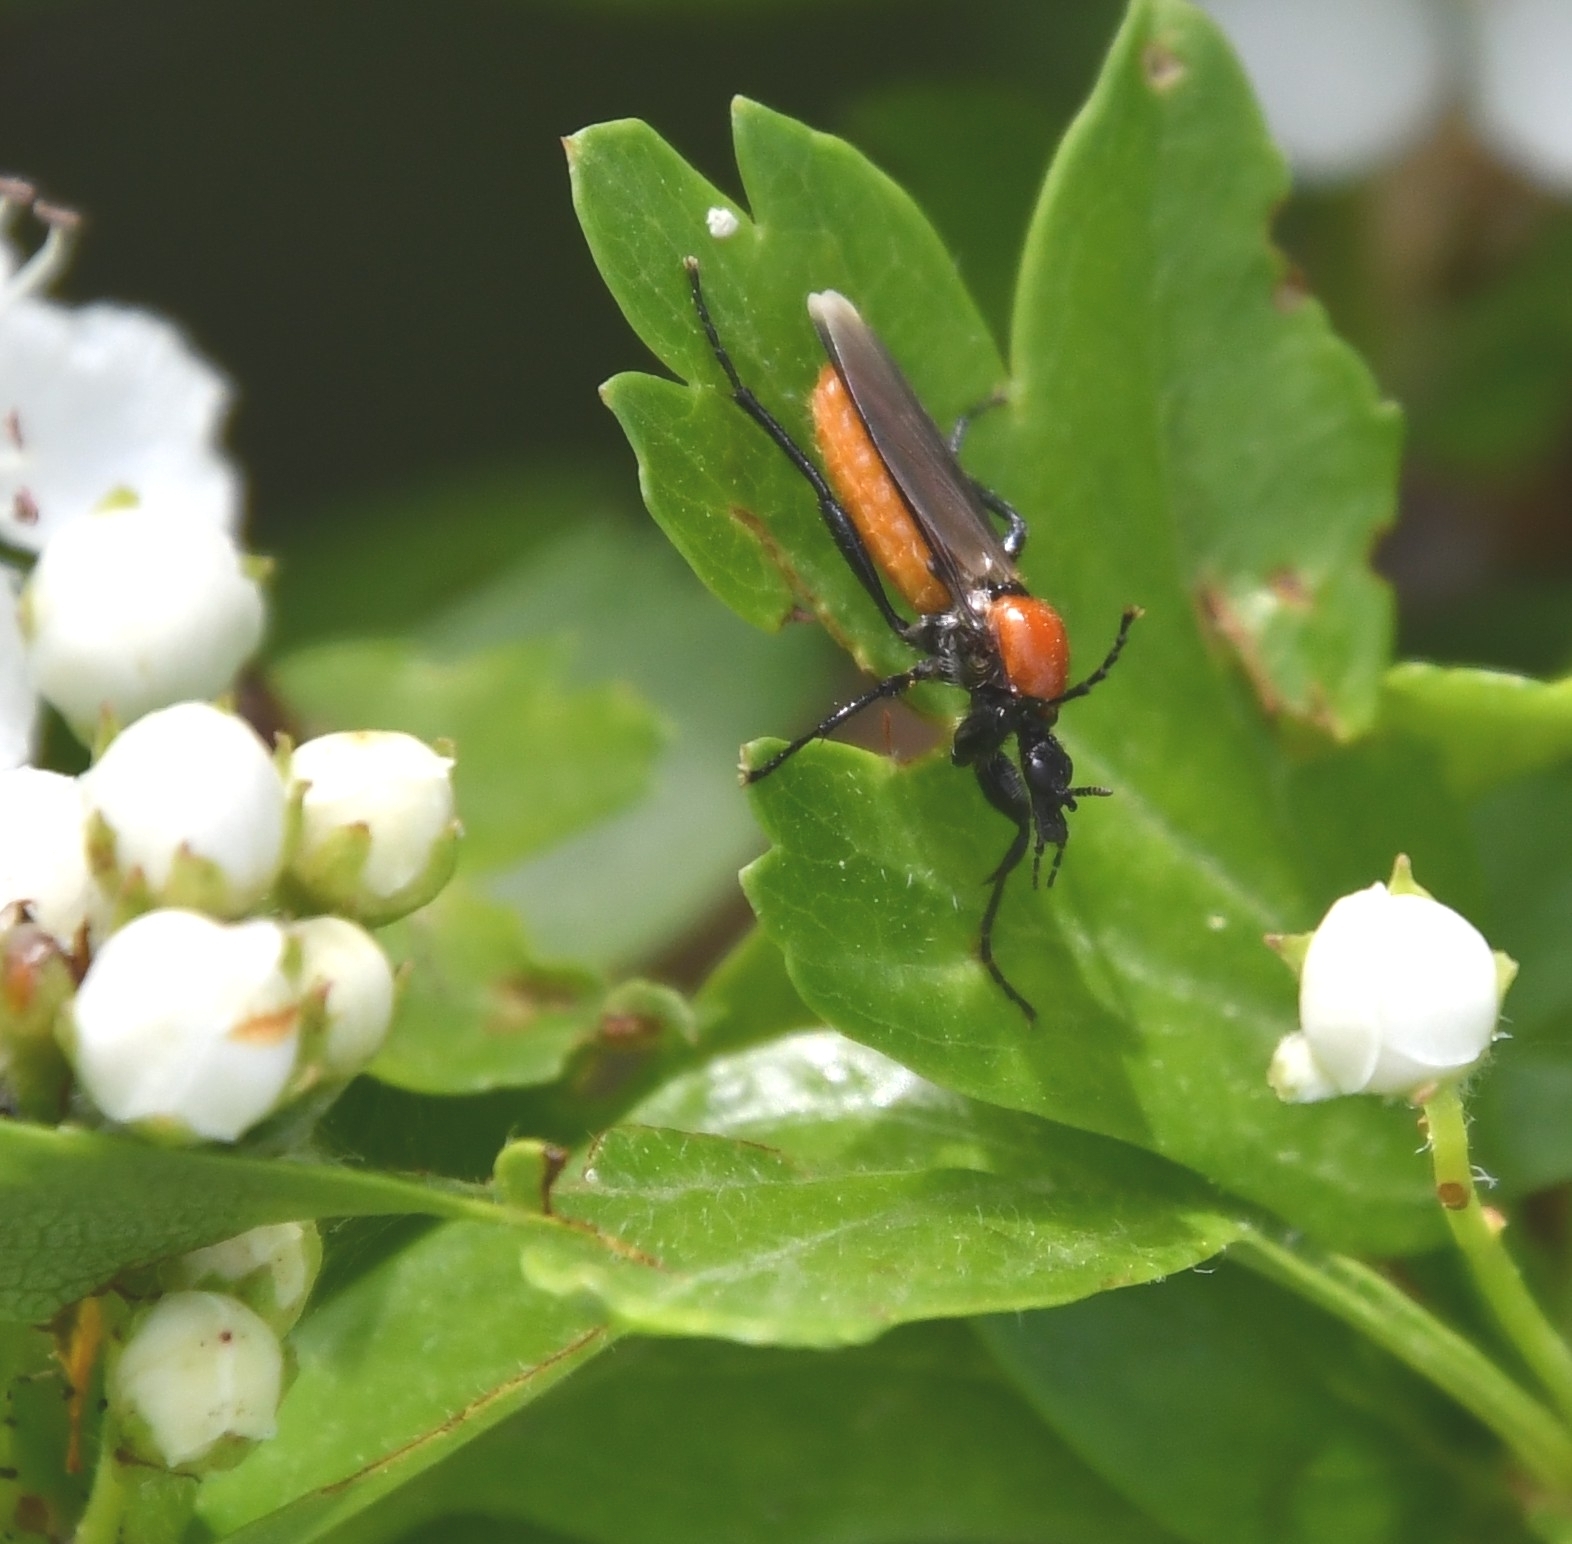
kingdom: Animalia
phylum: Arthropoda
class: Insecta
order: Diptera
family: Bibionidae
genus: Bibio
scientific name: Bibio hortulanus
